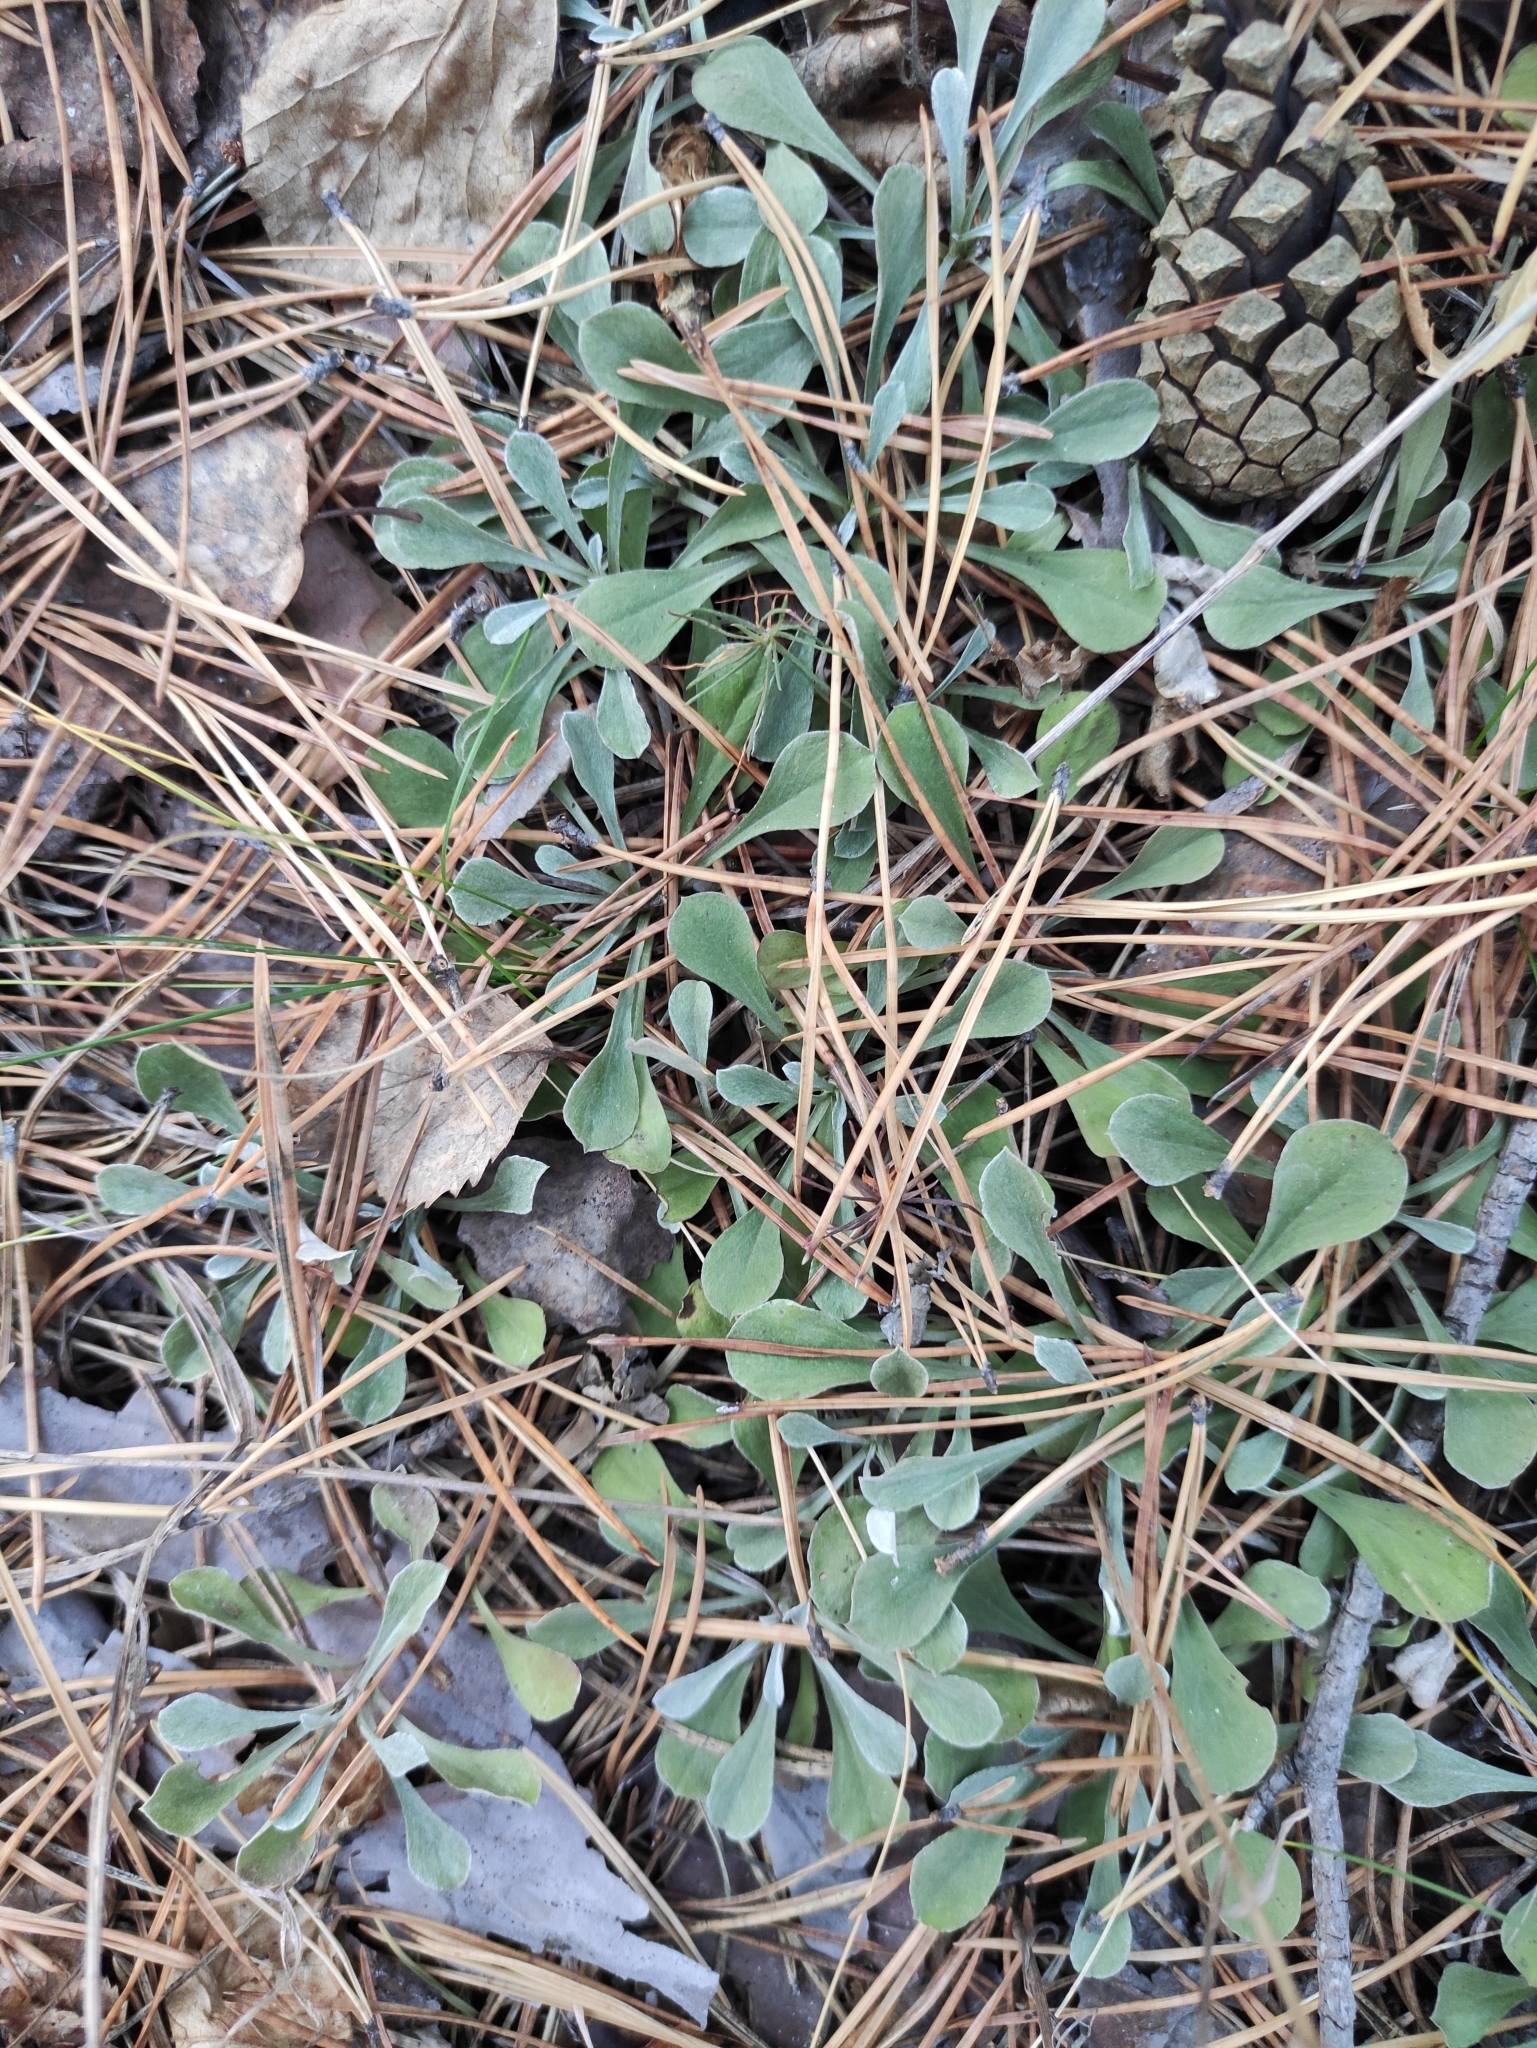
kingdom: Plantae
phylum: Tracheophyta
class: Magnoliopsida
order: Asterales
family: Asteraceae
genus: Antennaria
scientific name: Antennaria dioica
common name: Mountain everlasting
